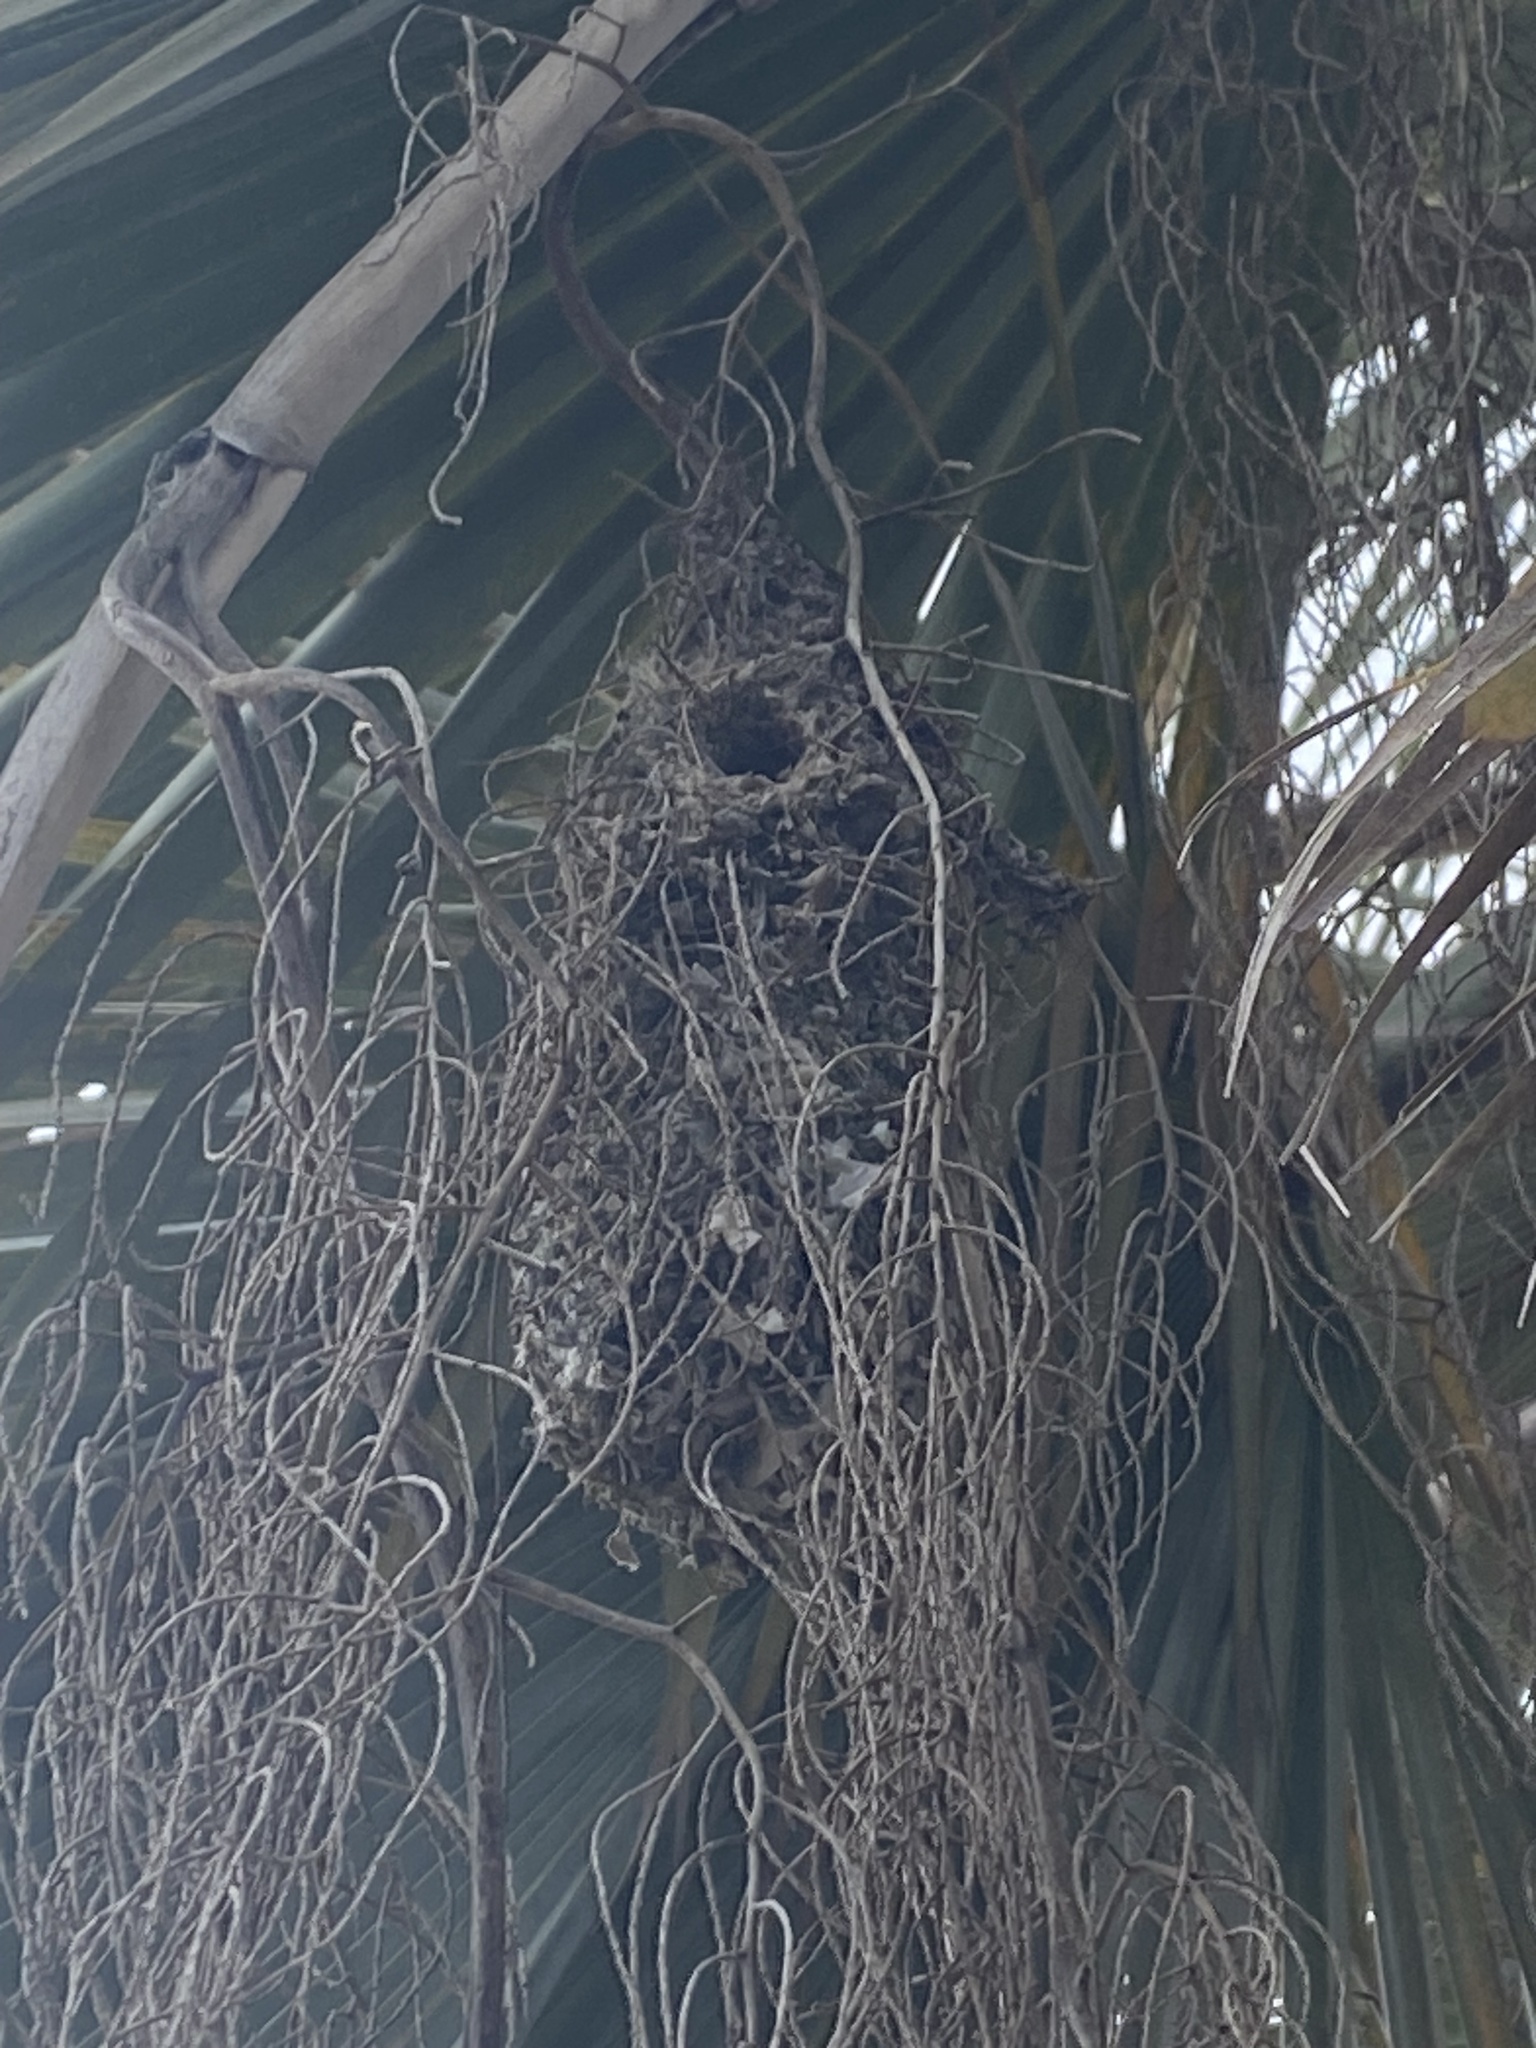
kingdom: Animalia
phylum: Chordata
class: Aves
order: Passeriformes
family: Aegithalidae
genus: Psaltriparus
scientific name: Psaltriparus minimus
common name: American bushtit
